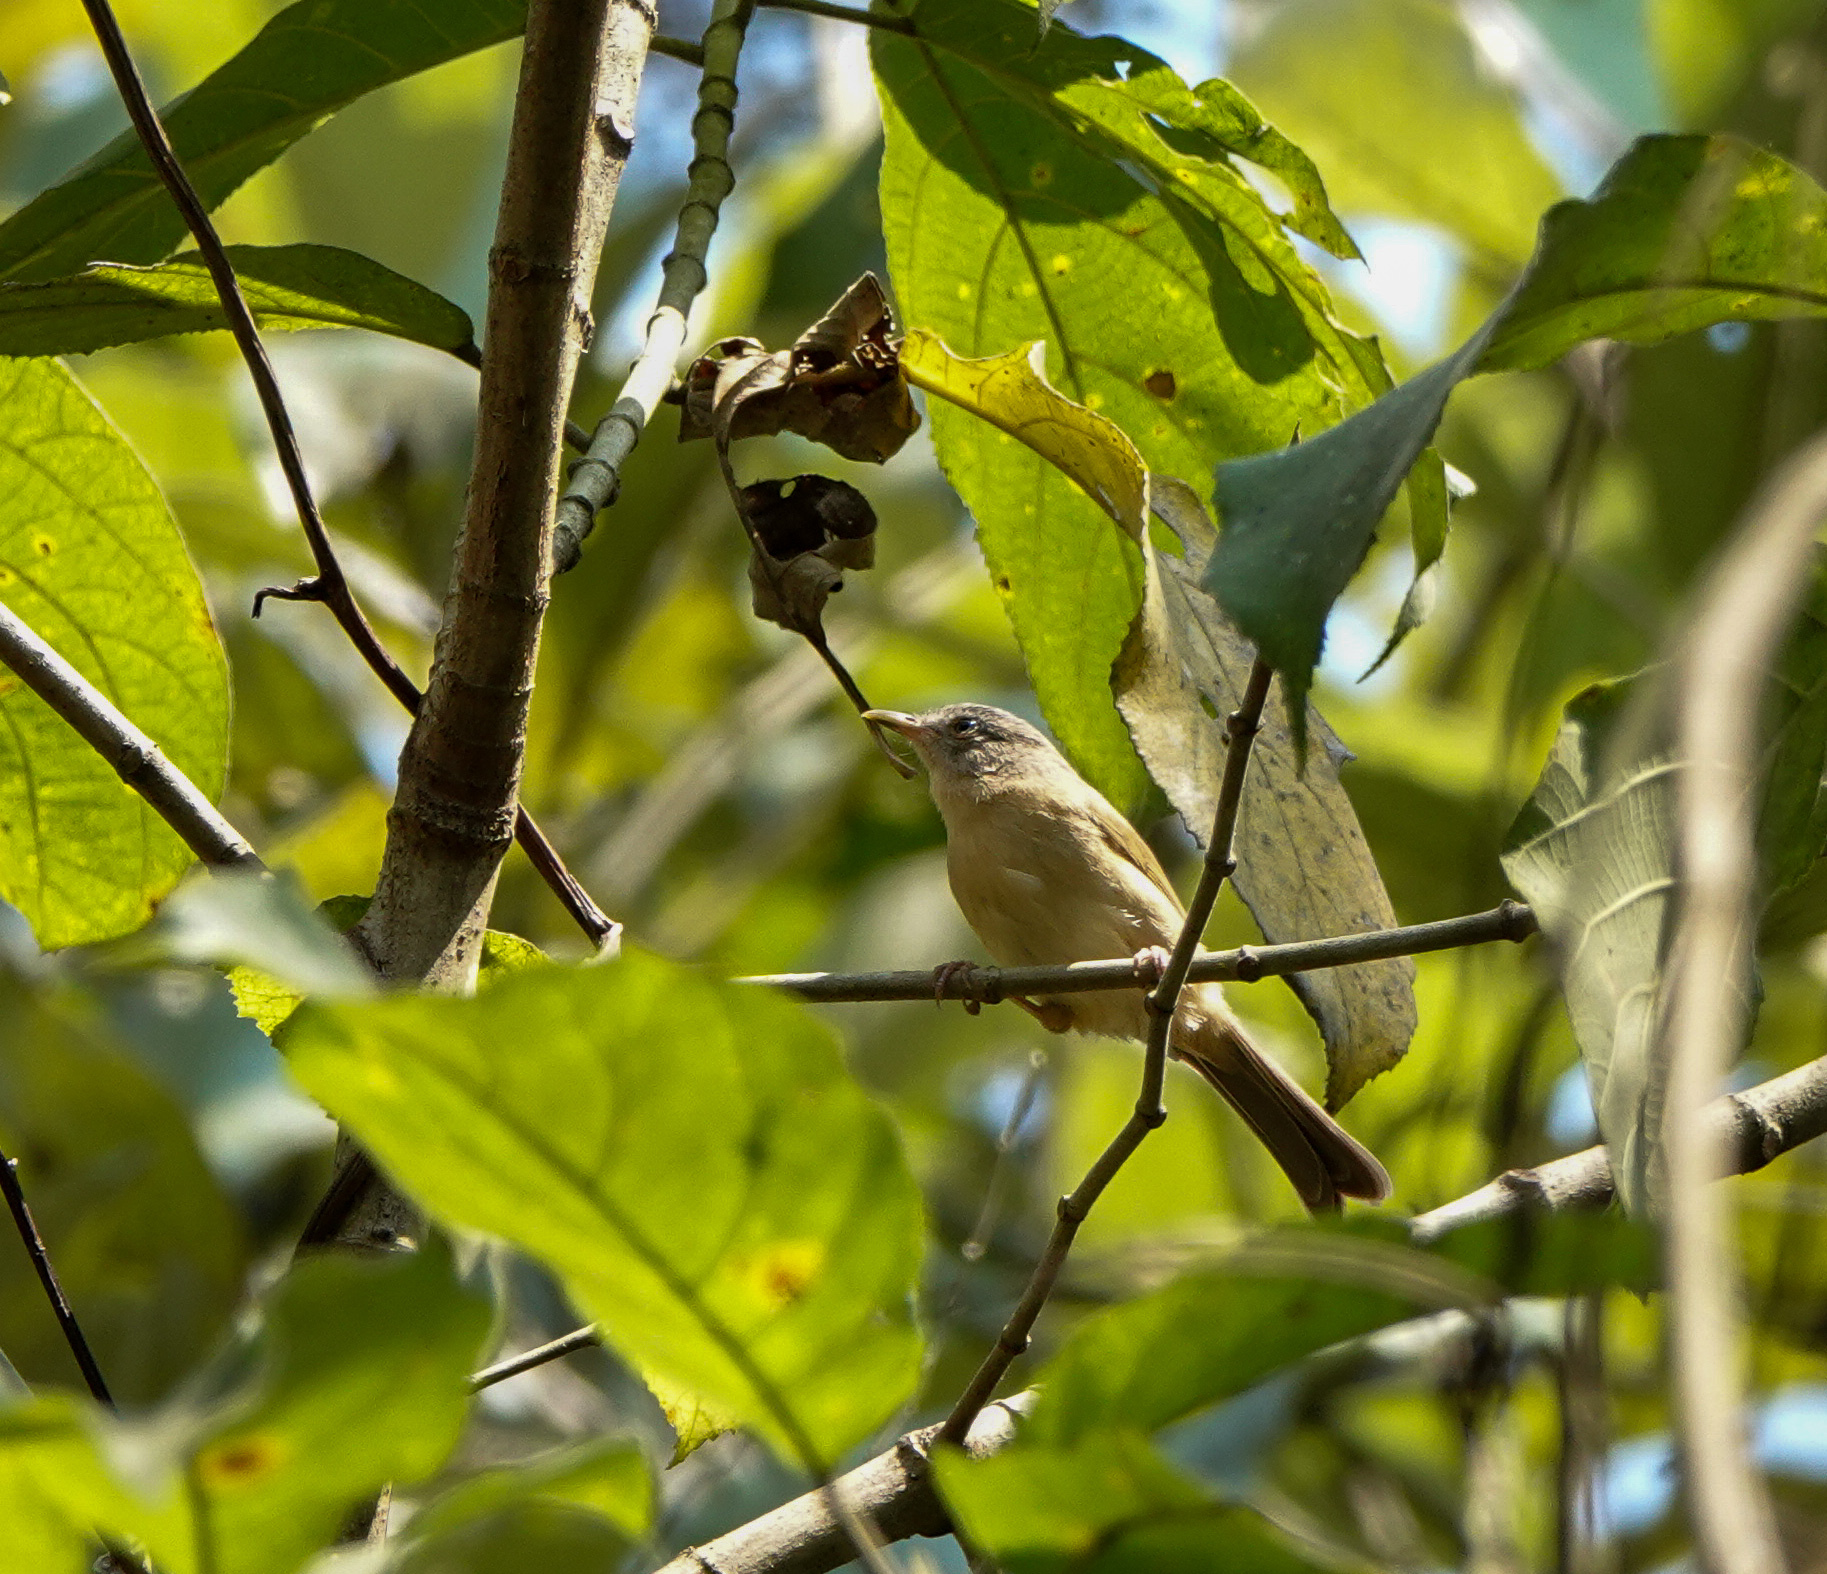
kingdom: Animalia
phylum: Chordata
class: Aves
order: Passeriformes
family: Pellorneidae
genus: Alcippe
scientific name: Alcippe poioicephala
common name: Brown-cheeked fulvetta
